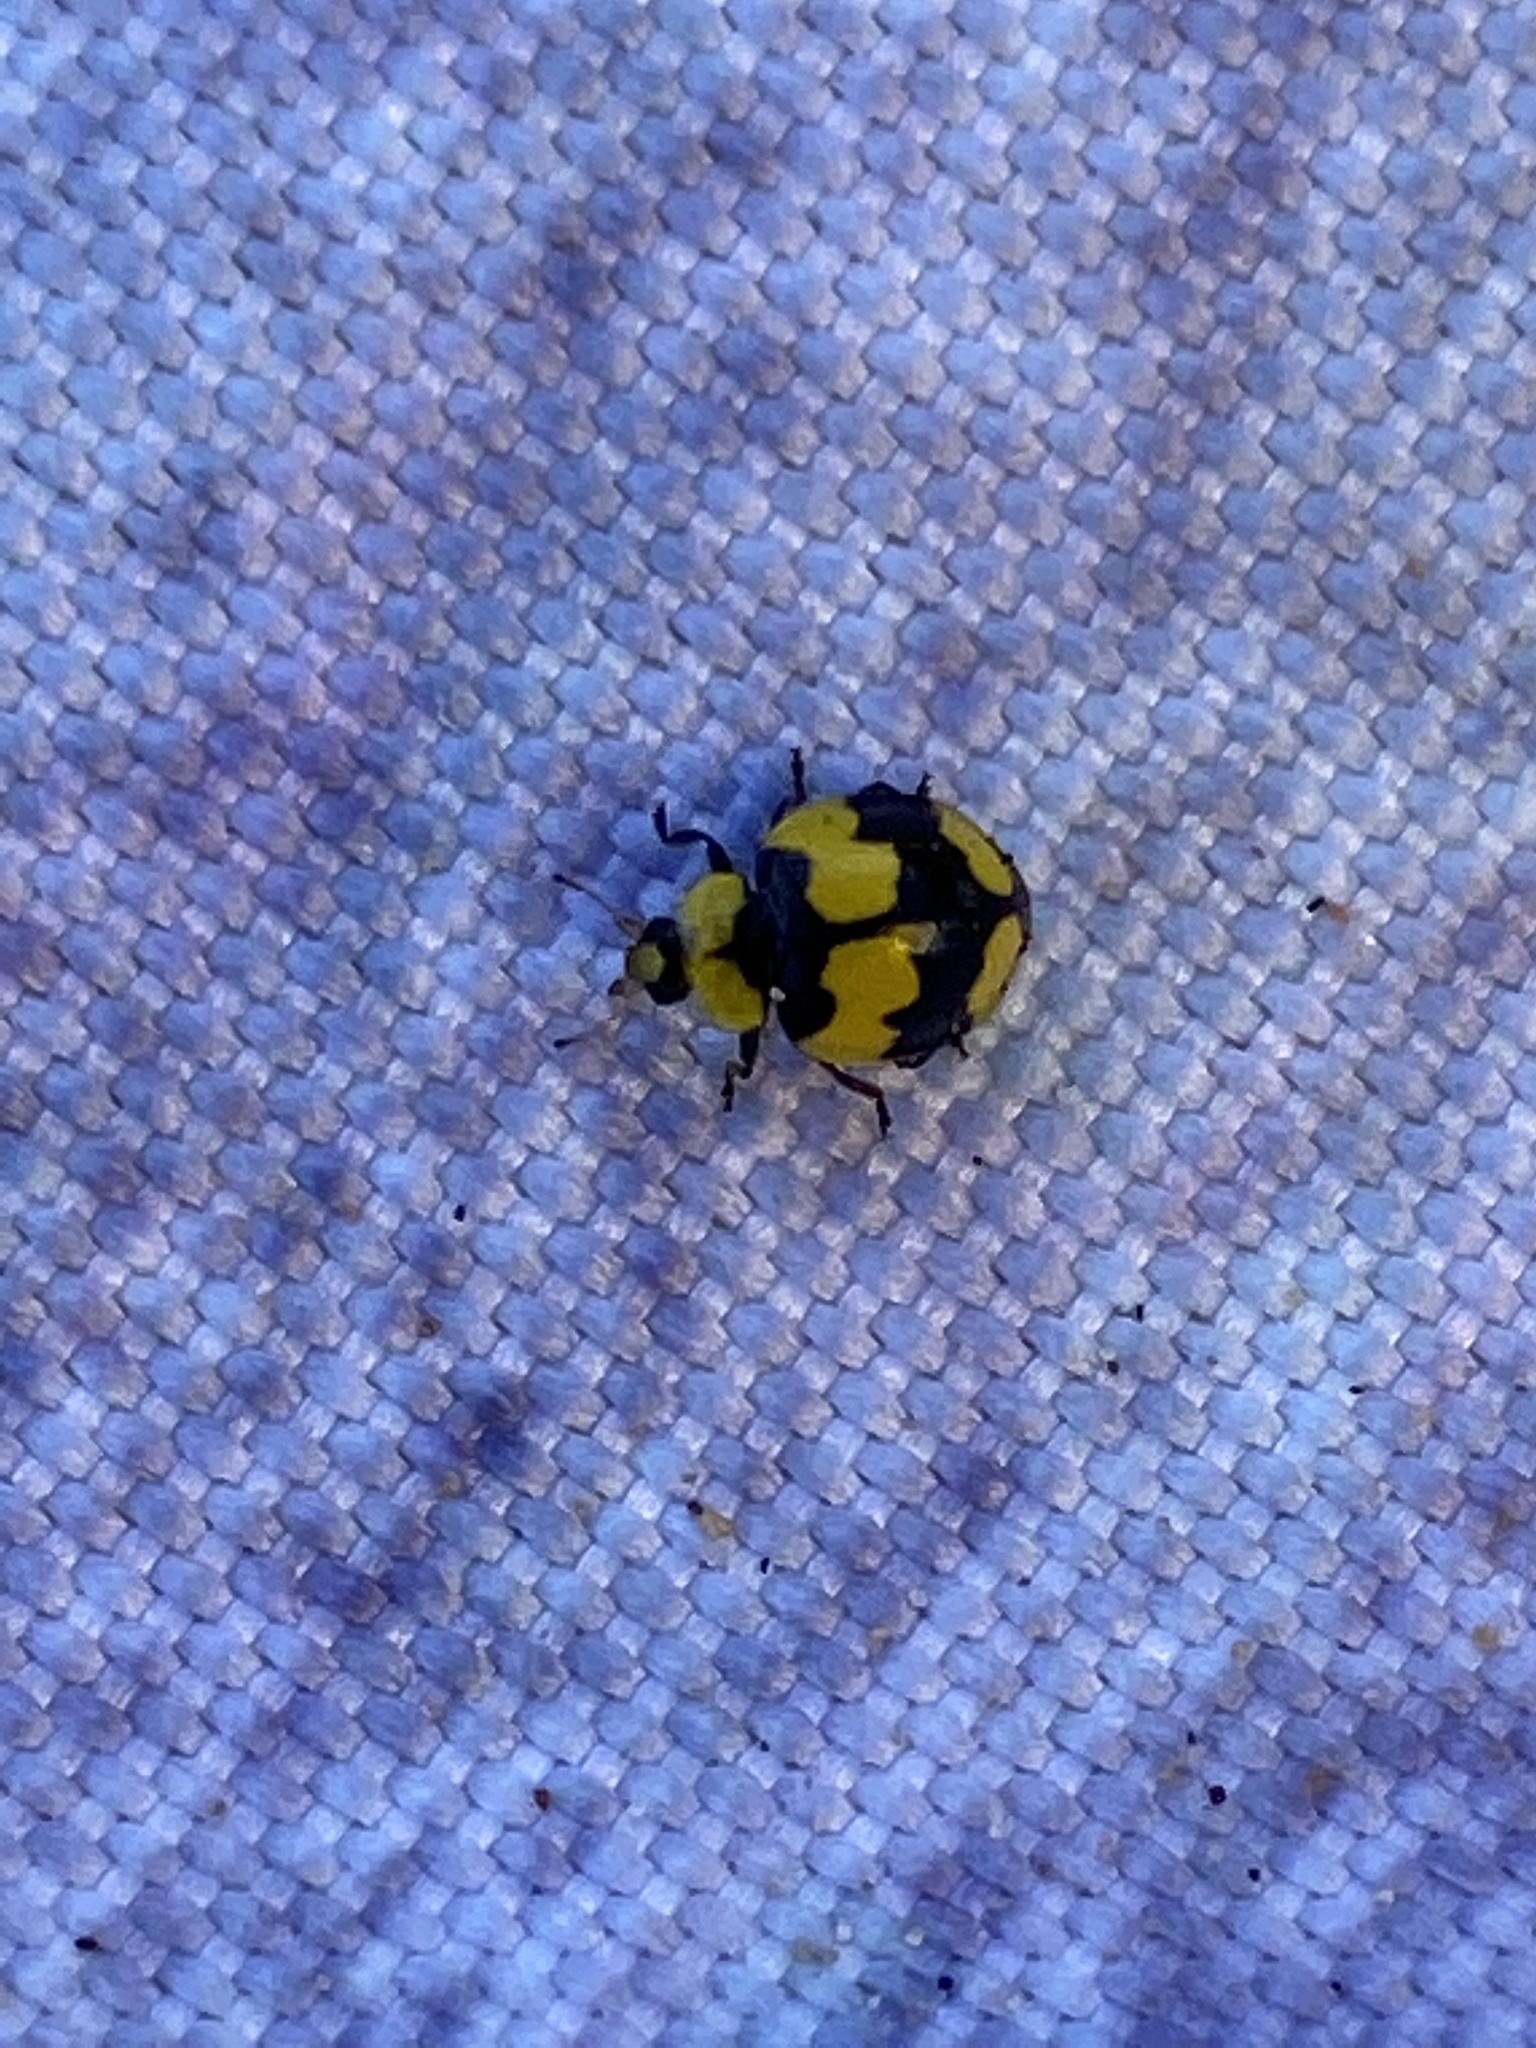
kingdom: Animalia
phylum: Arthropoda
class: Insecta
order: Coleoptera
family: Coccinellidae
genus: Illeis
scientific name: Illeis galbula
